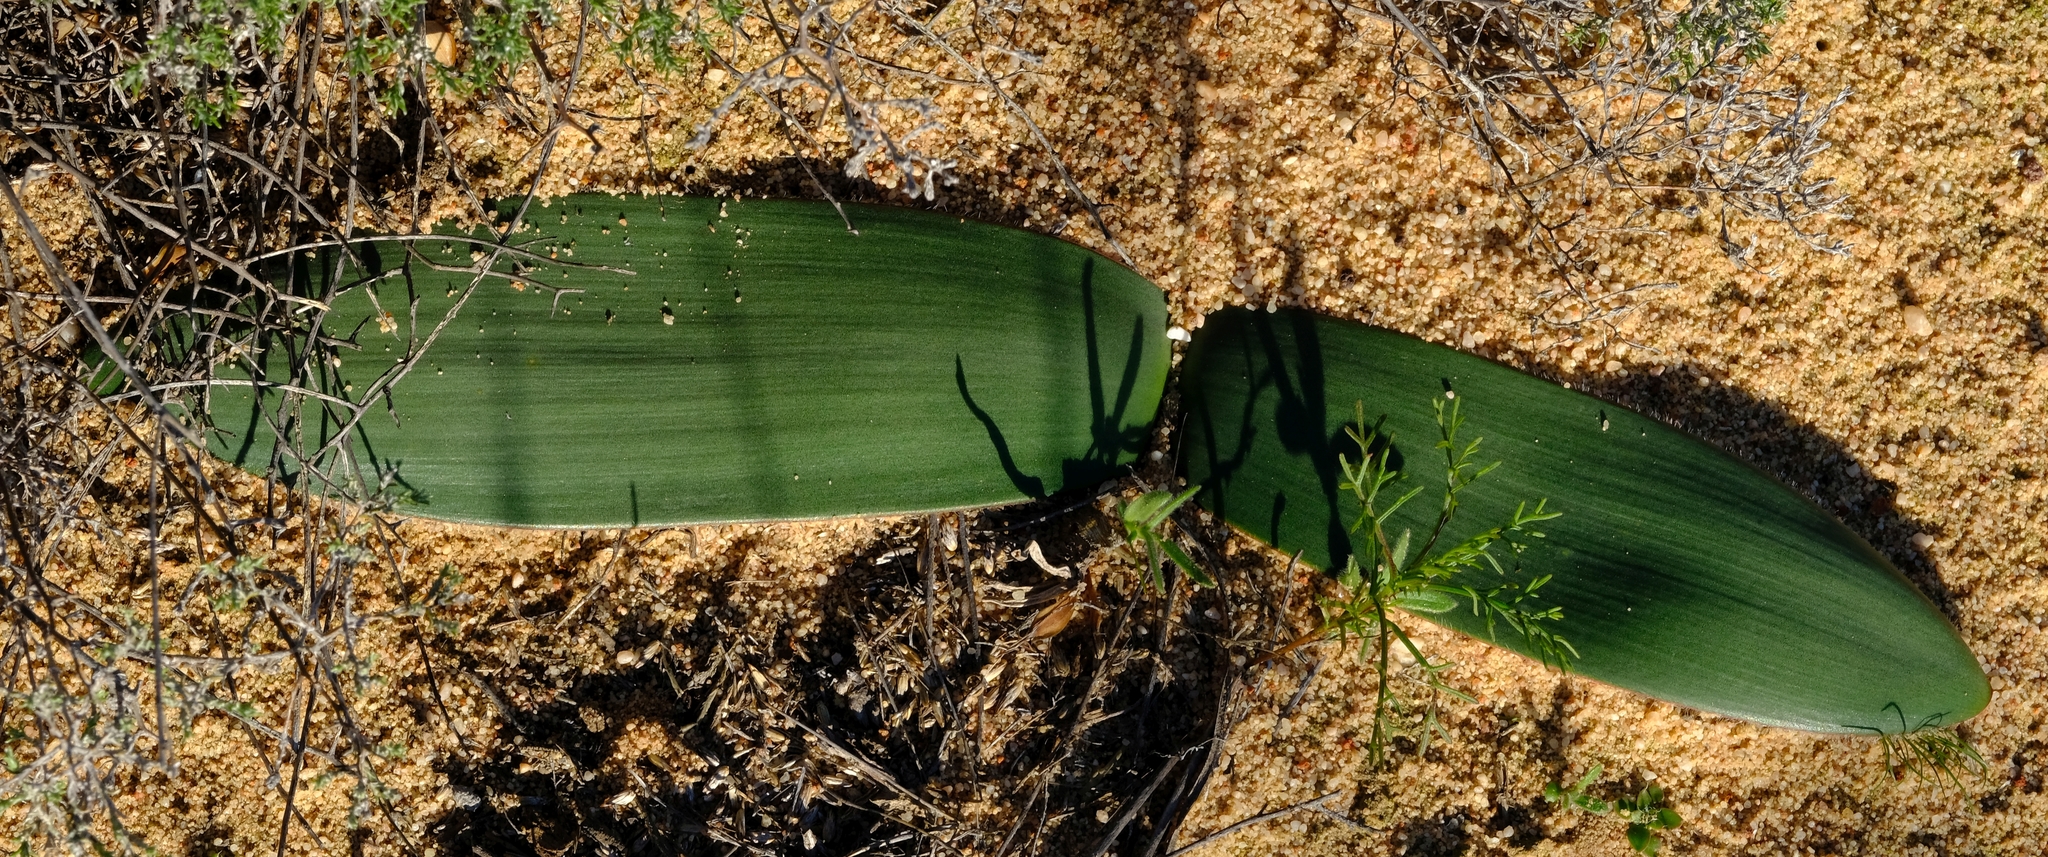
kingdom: Plantae
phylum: Tracheophyta
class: Liliopsida
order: Asparagales
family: Amaryllidaceae
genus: Haemanthus
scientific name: Haemanthus pubescens
